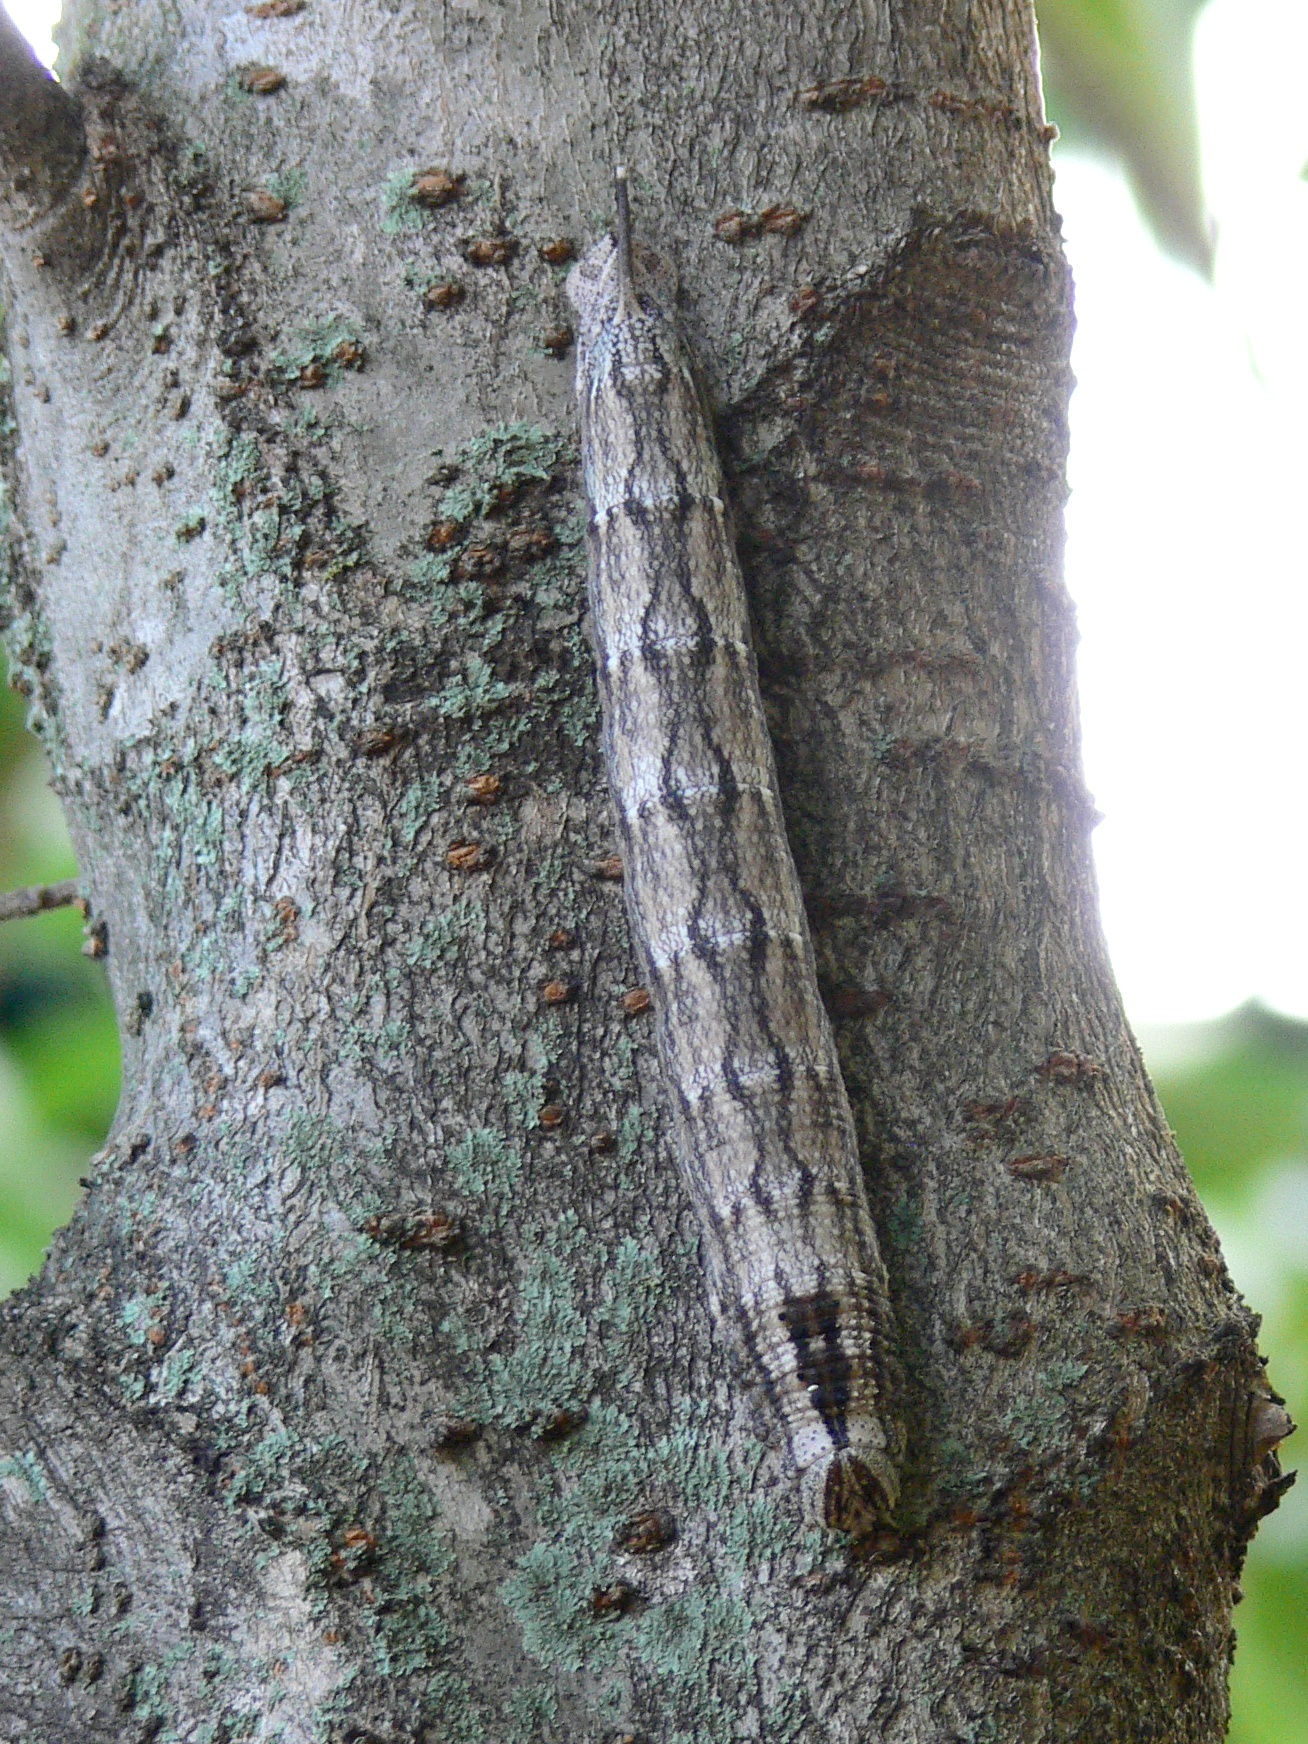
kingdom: Animalia
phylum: Arthropoda
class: Insecta
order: Lepidoptera
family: Sphingidae
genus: Panogena
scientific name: Panogena jasmini
